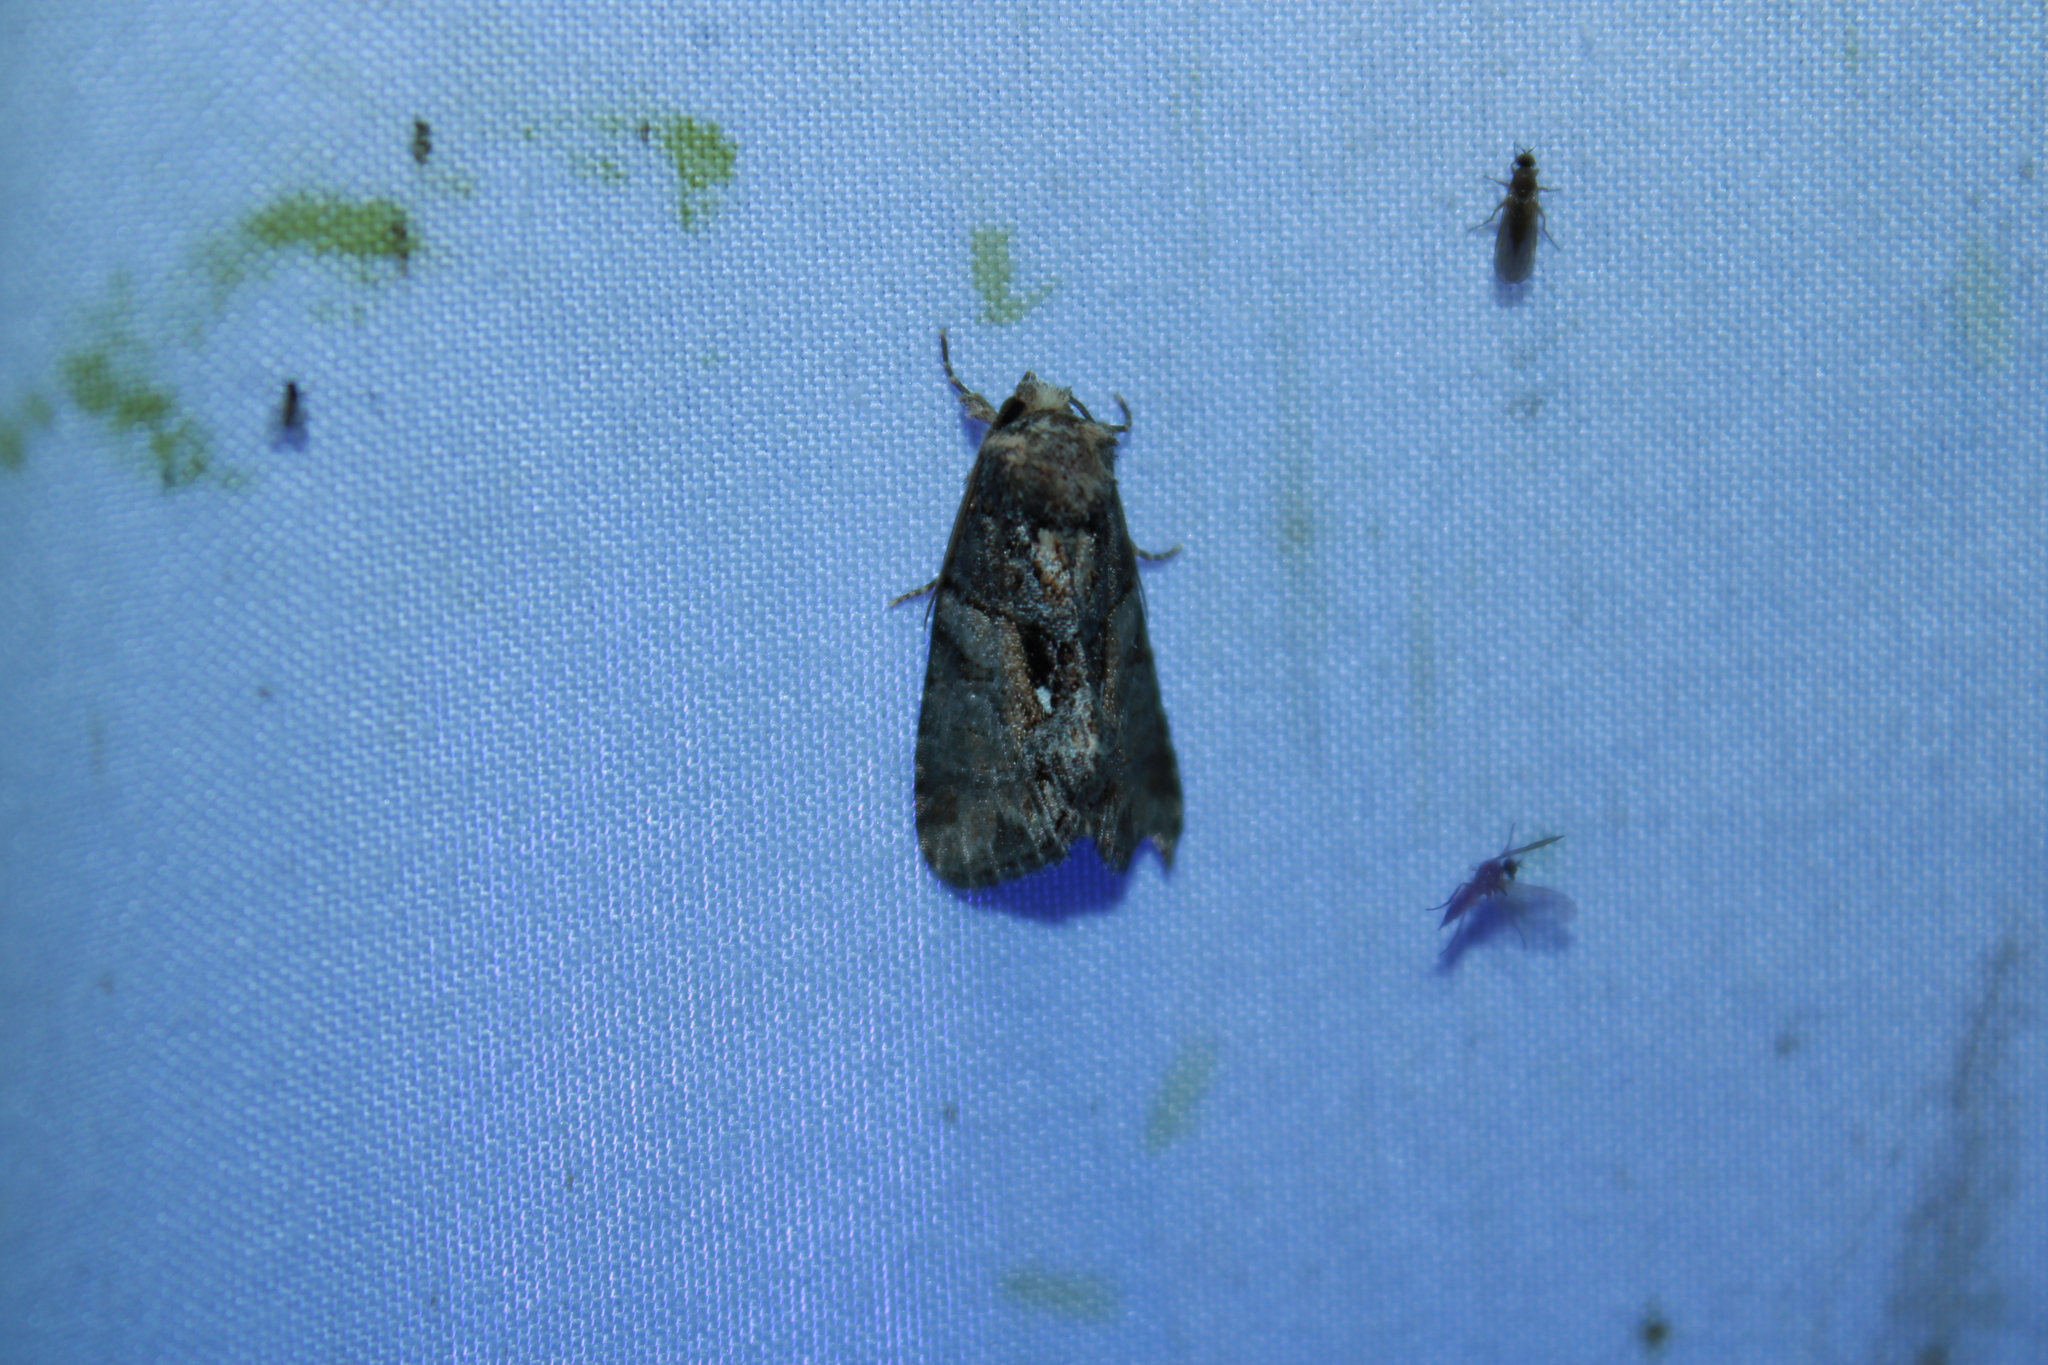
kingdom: Animalia
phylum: Arthropoda
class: Insecta
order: Lepidoptera
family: Noctuidae
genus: Chytonix
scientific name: Chytonix palliatricula
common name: Cloaked marvel
